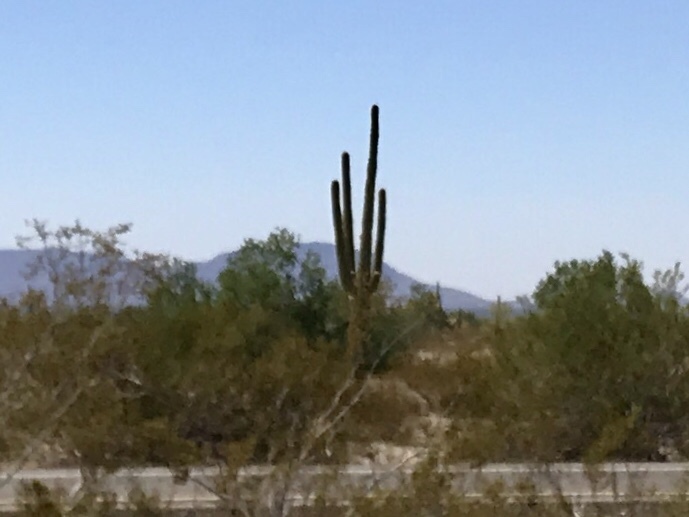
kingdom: Plantae
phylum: Tracheophyta
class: Magnoliopsida
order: Caryophyllales
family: Cactaceae
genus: Carnegiea
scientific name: Carnegiea gigantea
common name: Saguaro
